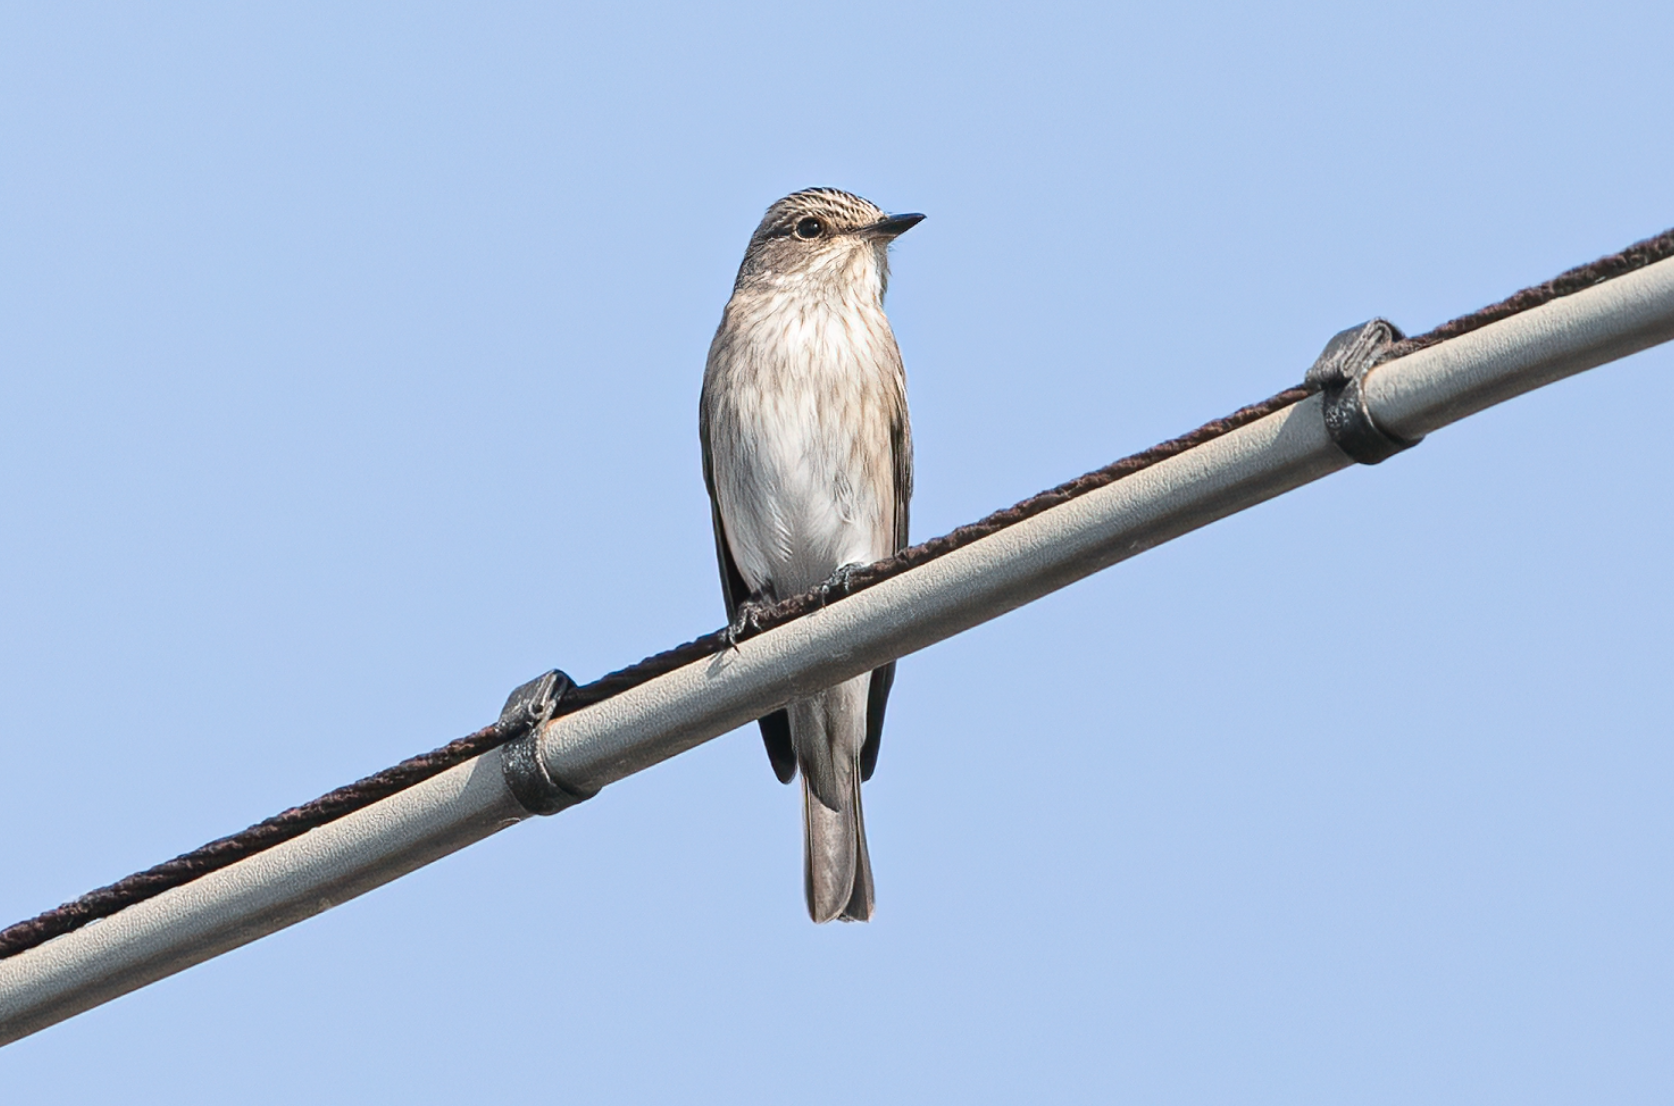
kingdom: Animalia
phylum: Chordata
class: Aves
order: Passeriformes
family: Muscicapidae
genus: Muscicapa
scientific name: Muscicapa striata
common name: Spotted flycatcher
